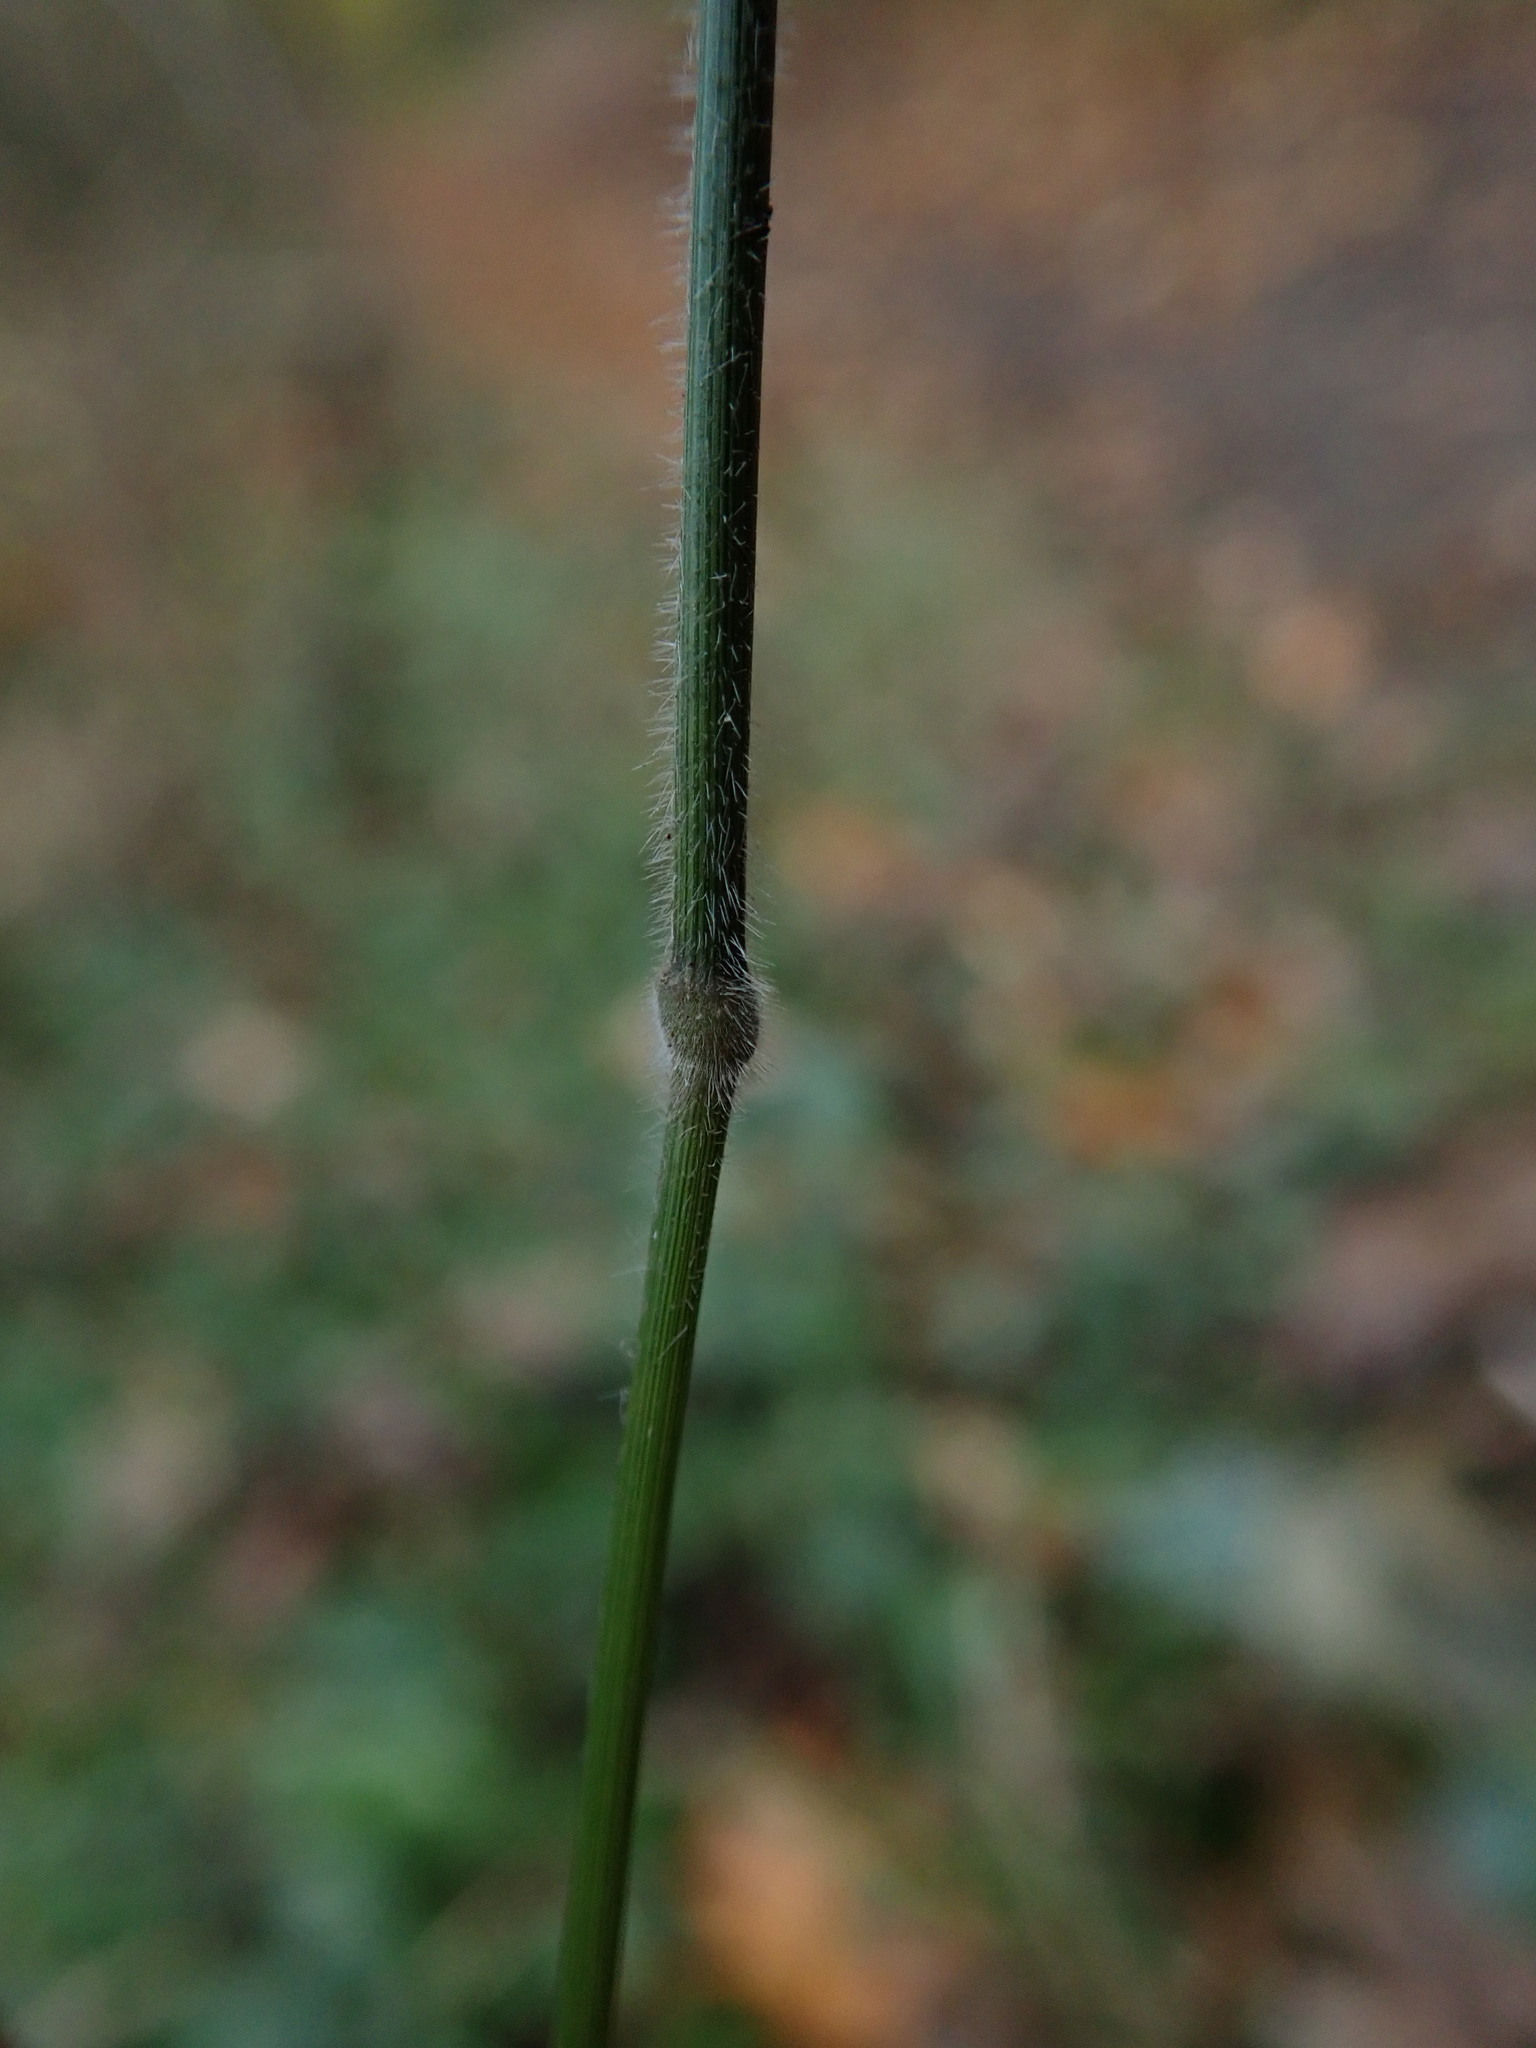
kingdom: Plantae
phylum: Tracheophyta
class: Liliopsida
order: Poales
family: Poaceae
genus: Brachypodium
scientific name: Brachypodium sylvaticum
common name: False-brome
